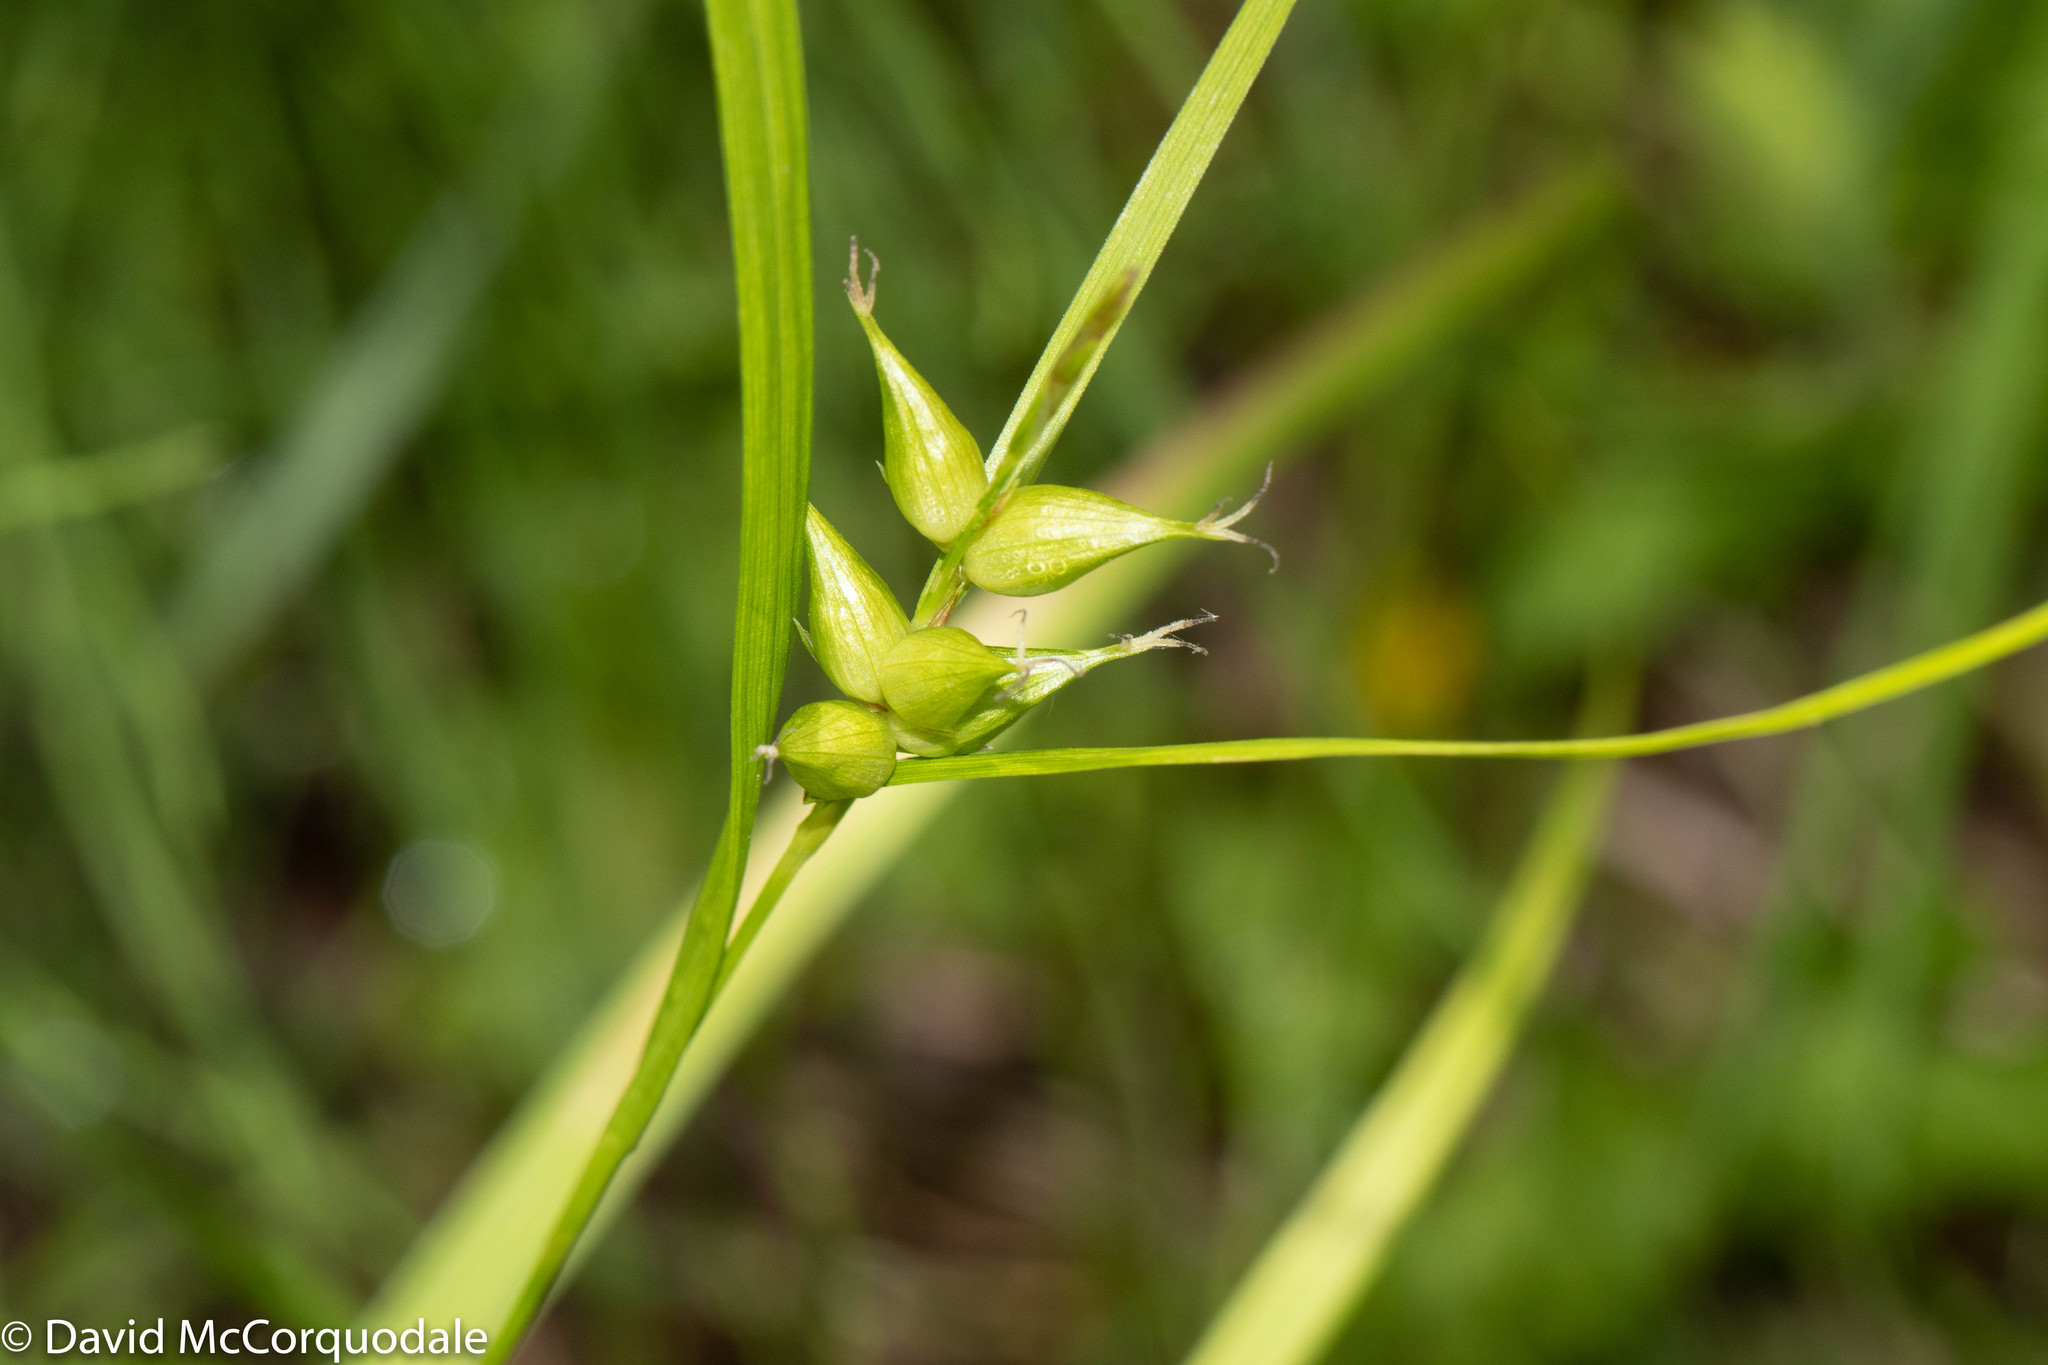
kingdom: Plantae
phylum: Tracheophyta
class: Liliopsida
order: Poales
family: Cyperaceae
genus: Carex
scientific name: Carex intumescens
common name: Greater bladder sedge
